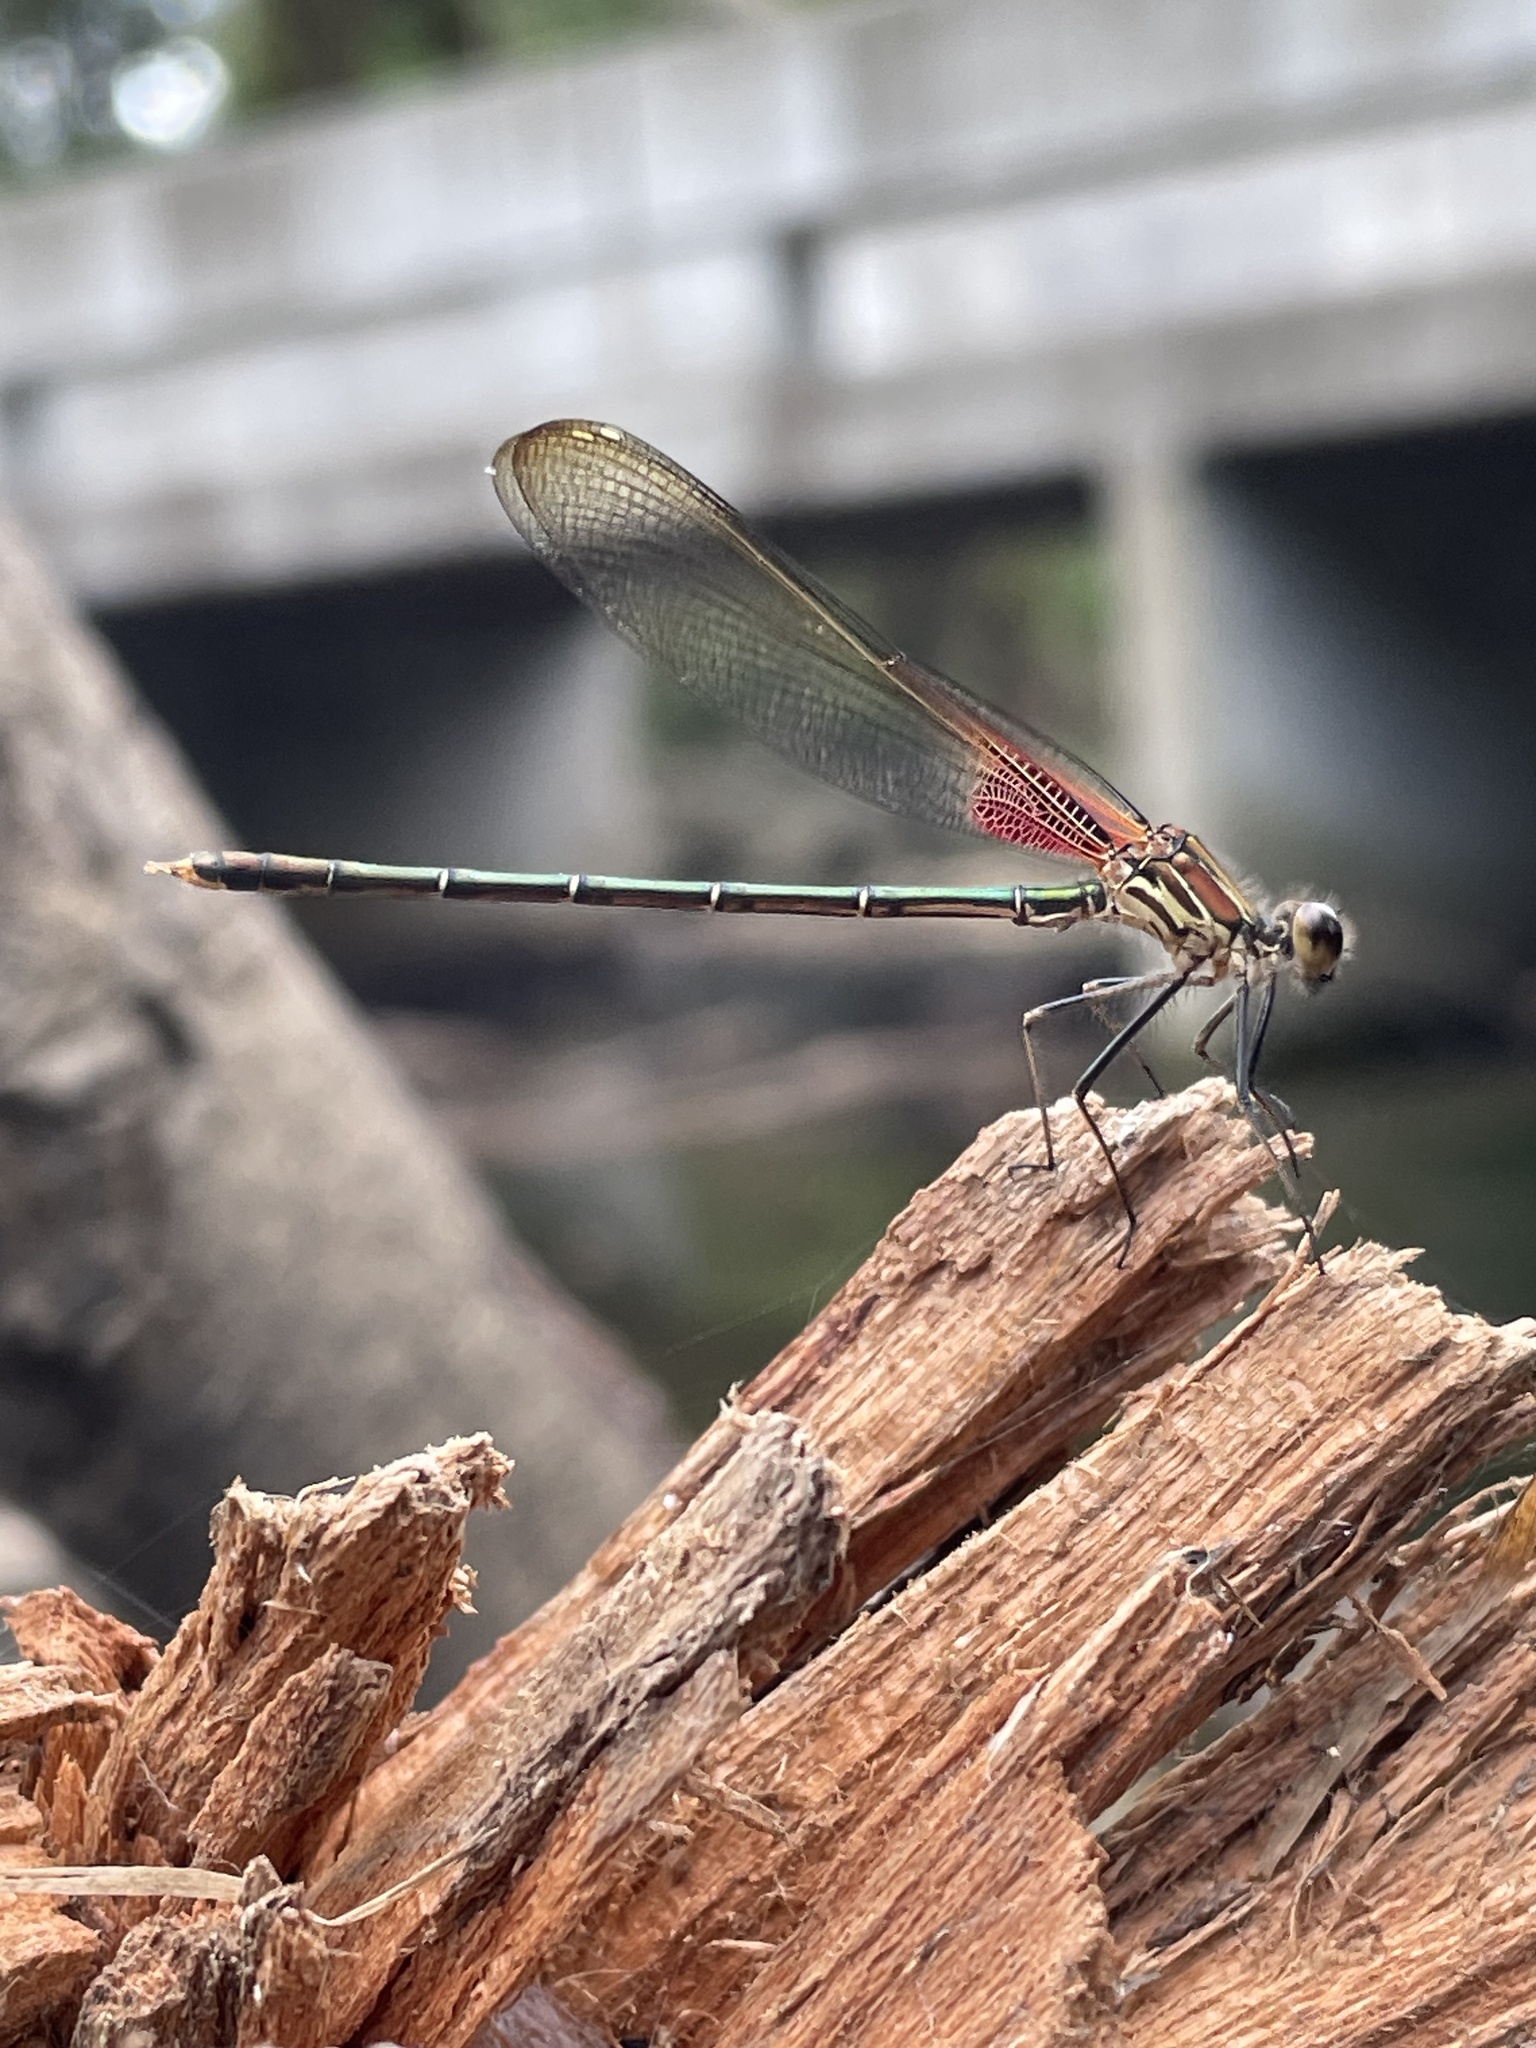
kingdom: Animalia
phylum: Arthropoda
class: Insecta
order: Odonata
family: Calopterygidae
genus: Hetaerina
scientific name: Hetaerina americana
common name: American rubyspot
